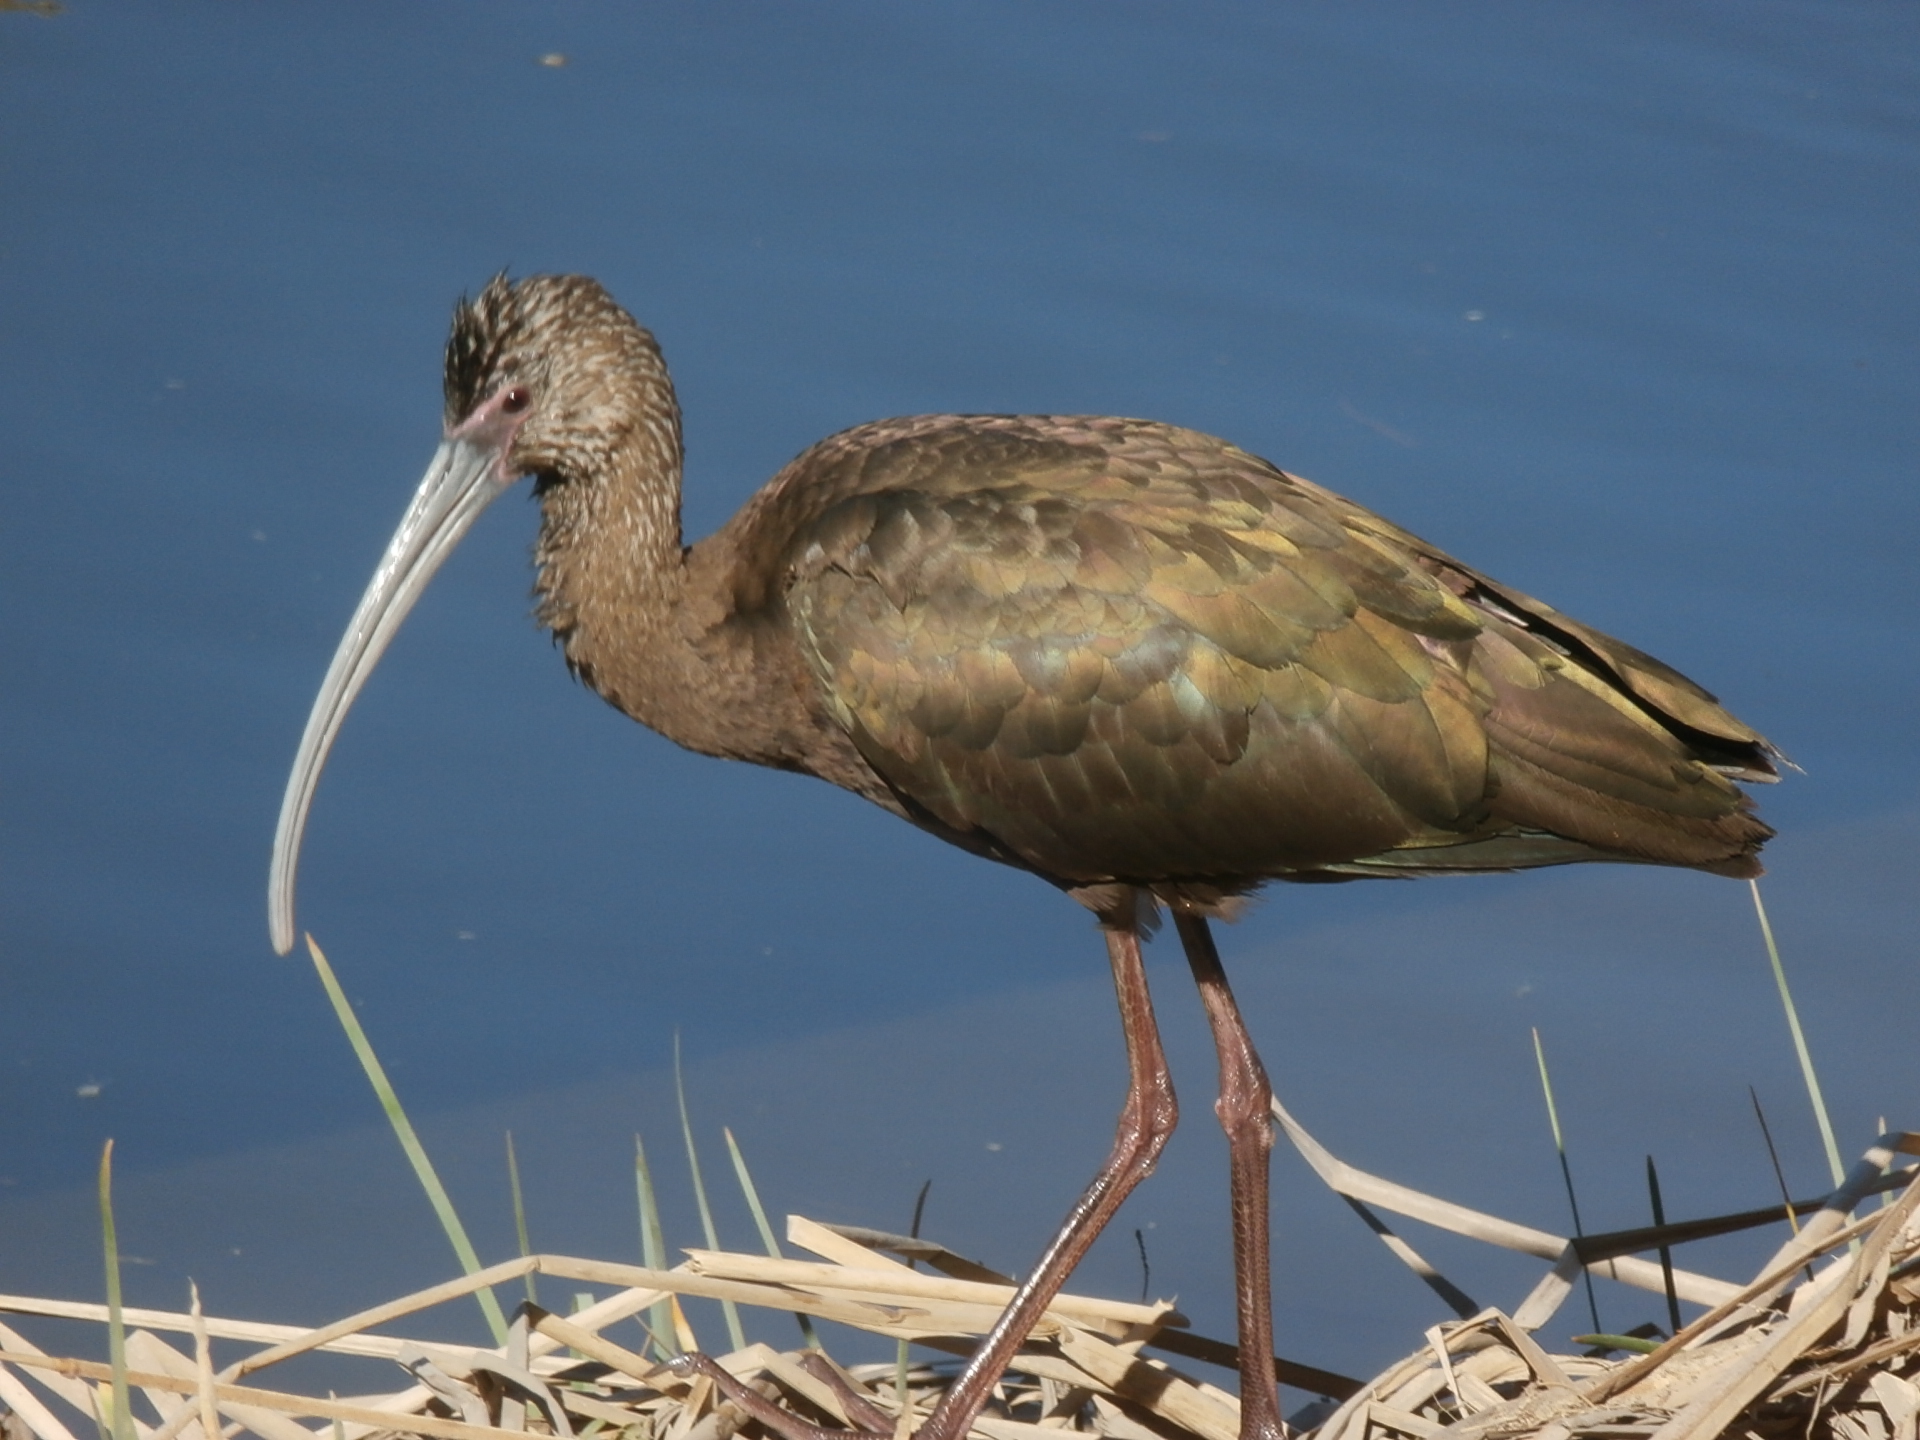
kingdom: Animalia
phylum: Chordata
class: Aves
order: Pelecaniformes
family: Threskiornithidae
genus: Plegadis
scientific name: Plegadis chihi
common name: White-faced ibis
